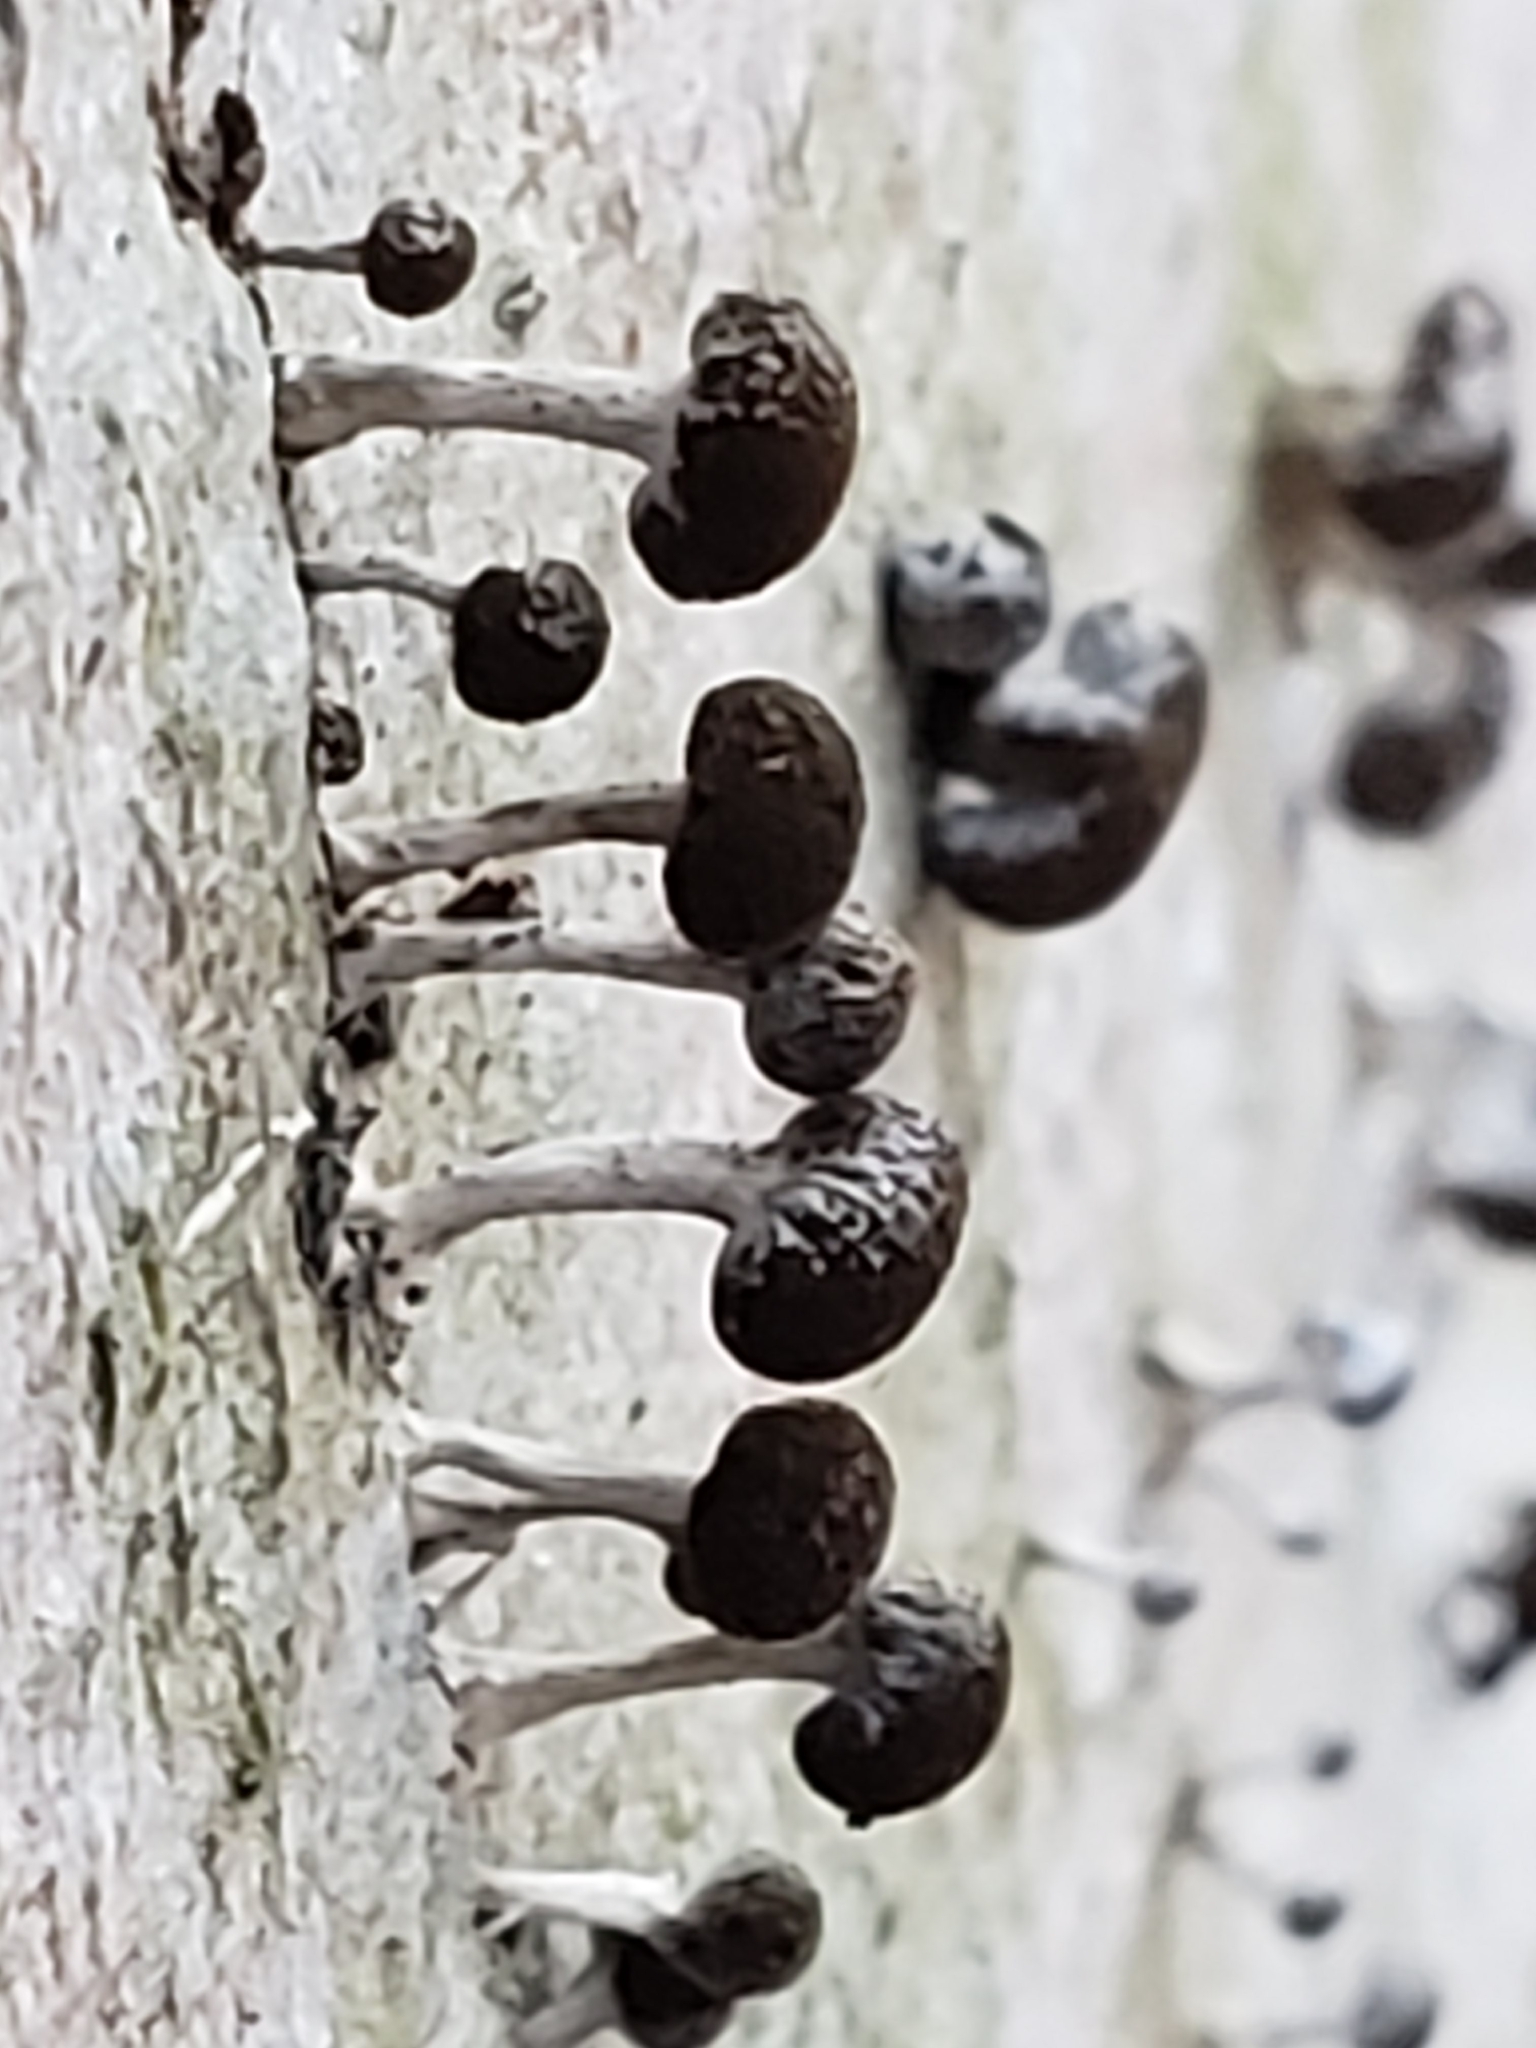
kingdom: Fungi
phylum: Basidiomycota
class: Atractiellomycetes
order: Atractiellales
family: Phleogenaceae
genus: Phleogena
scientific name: Phleogena faginea
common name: Fenugreek stalkball
